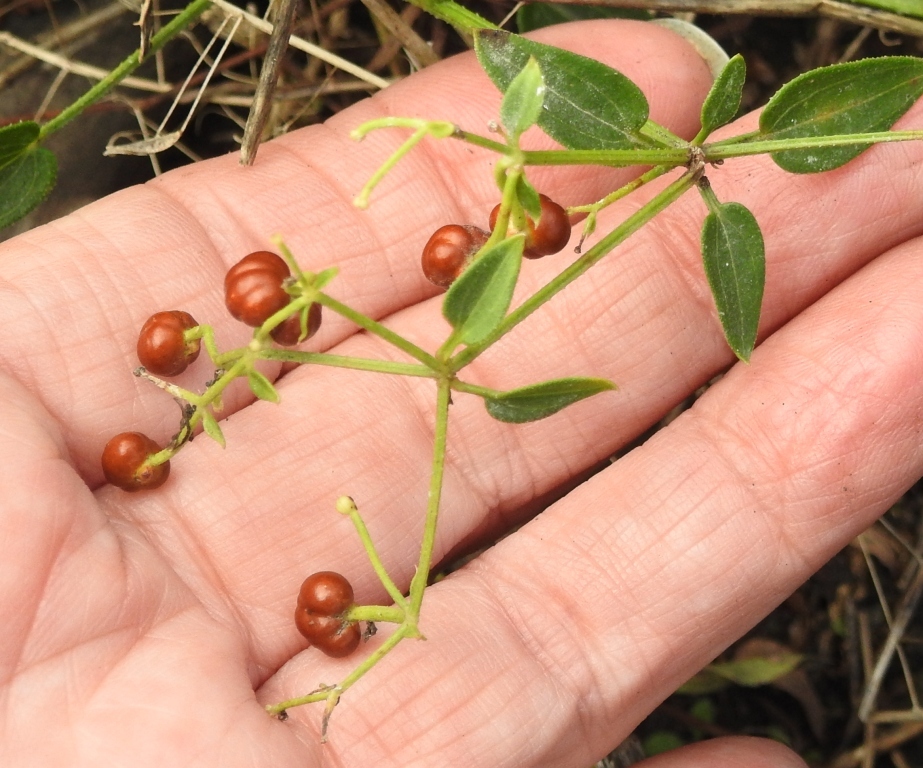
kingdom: Plantae
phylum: Tracheophyta
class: Magnoliopsida
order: Gentianales
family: Rubiaceae
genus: Rubia
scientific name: Rubia cordifolia
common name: Indian madder
